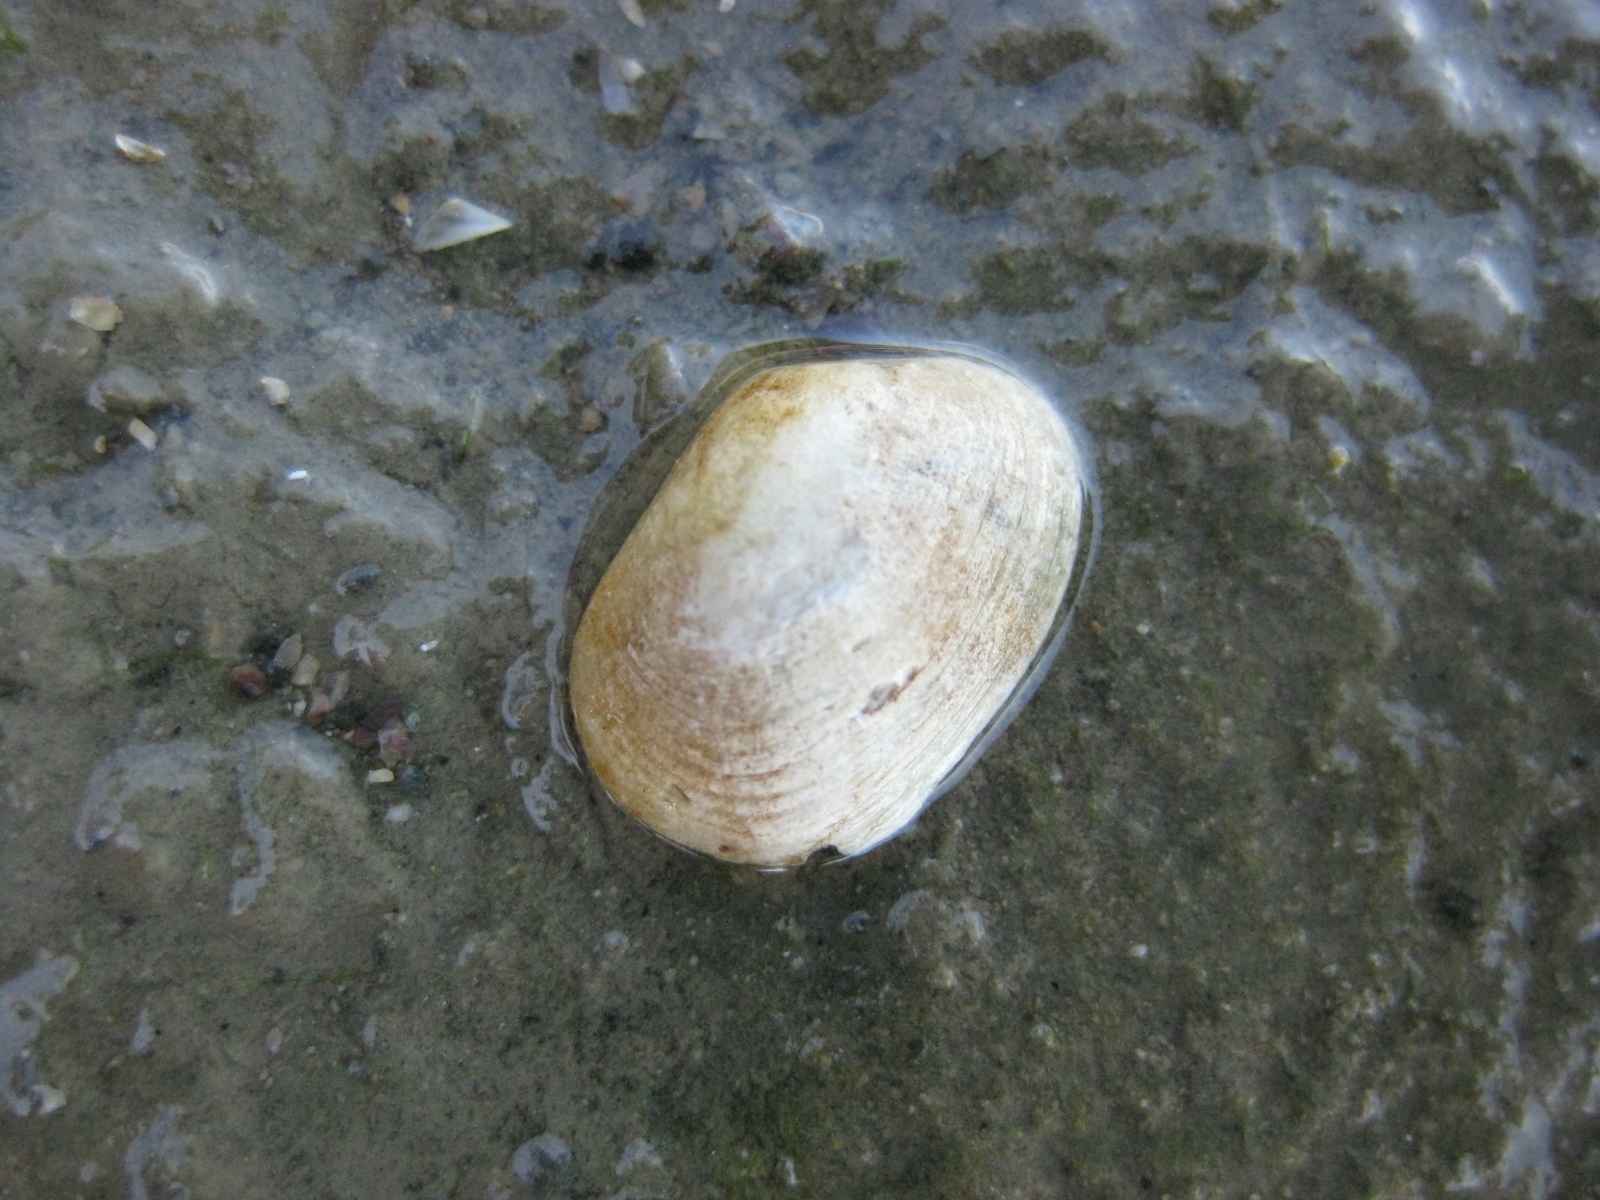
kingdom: Animalia
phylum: Mollusca
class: Bivalvia
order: Venerida
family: Veneridae
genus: Venerupis
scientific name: Venerupis largillierti
